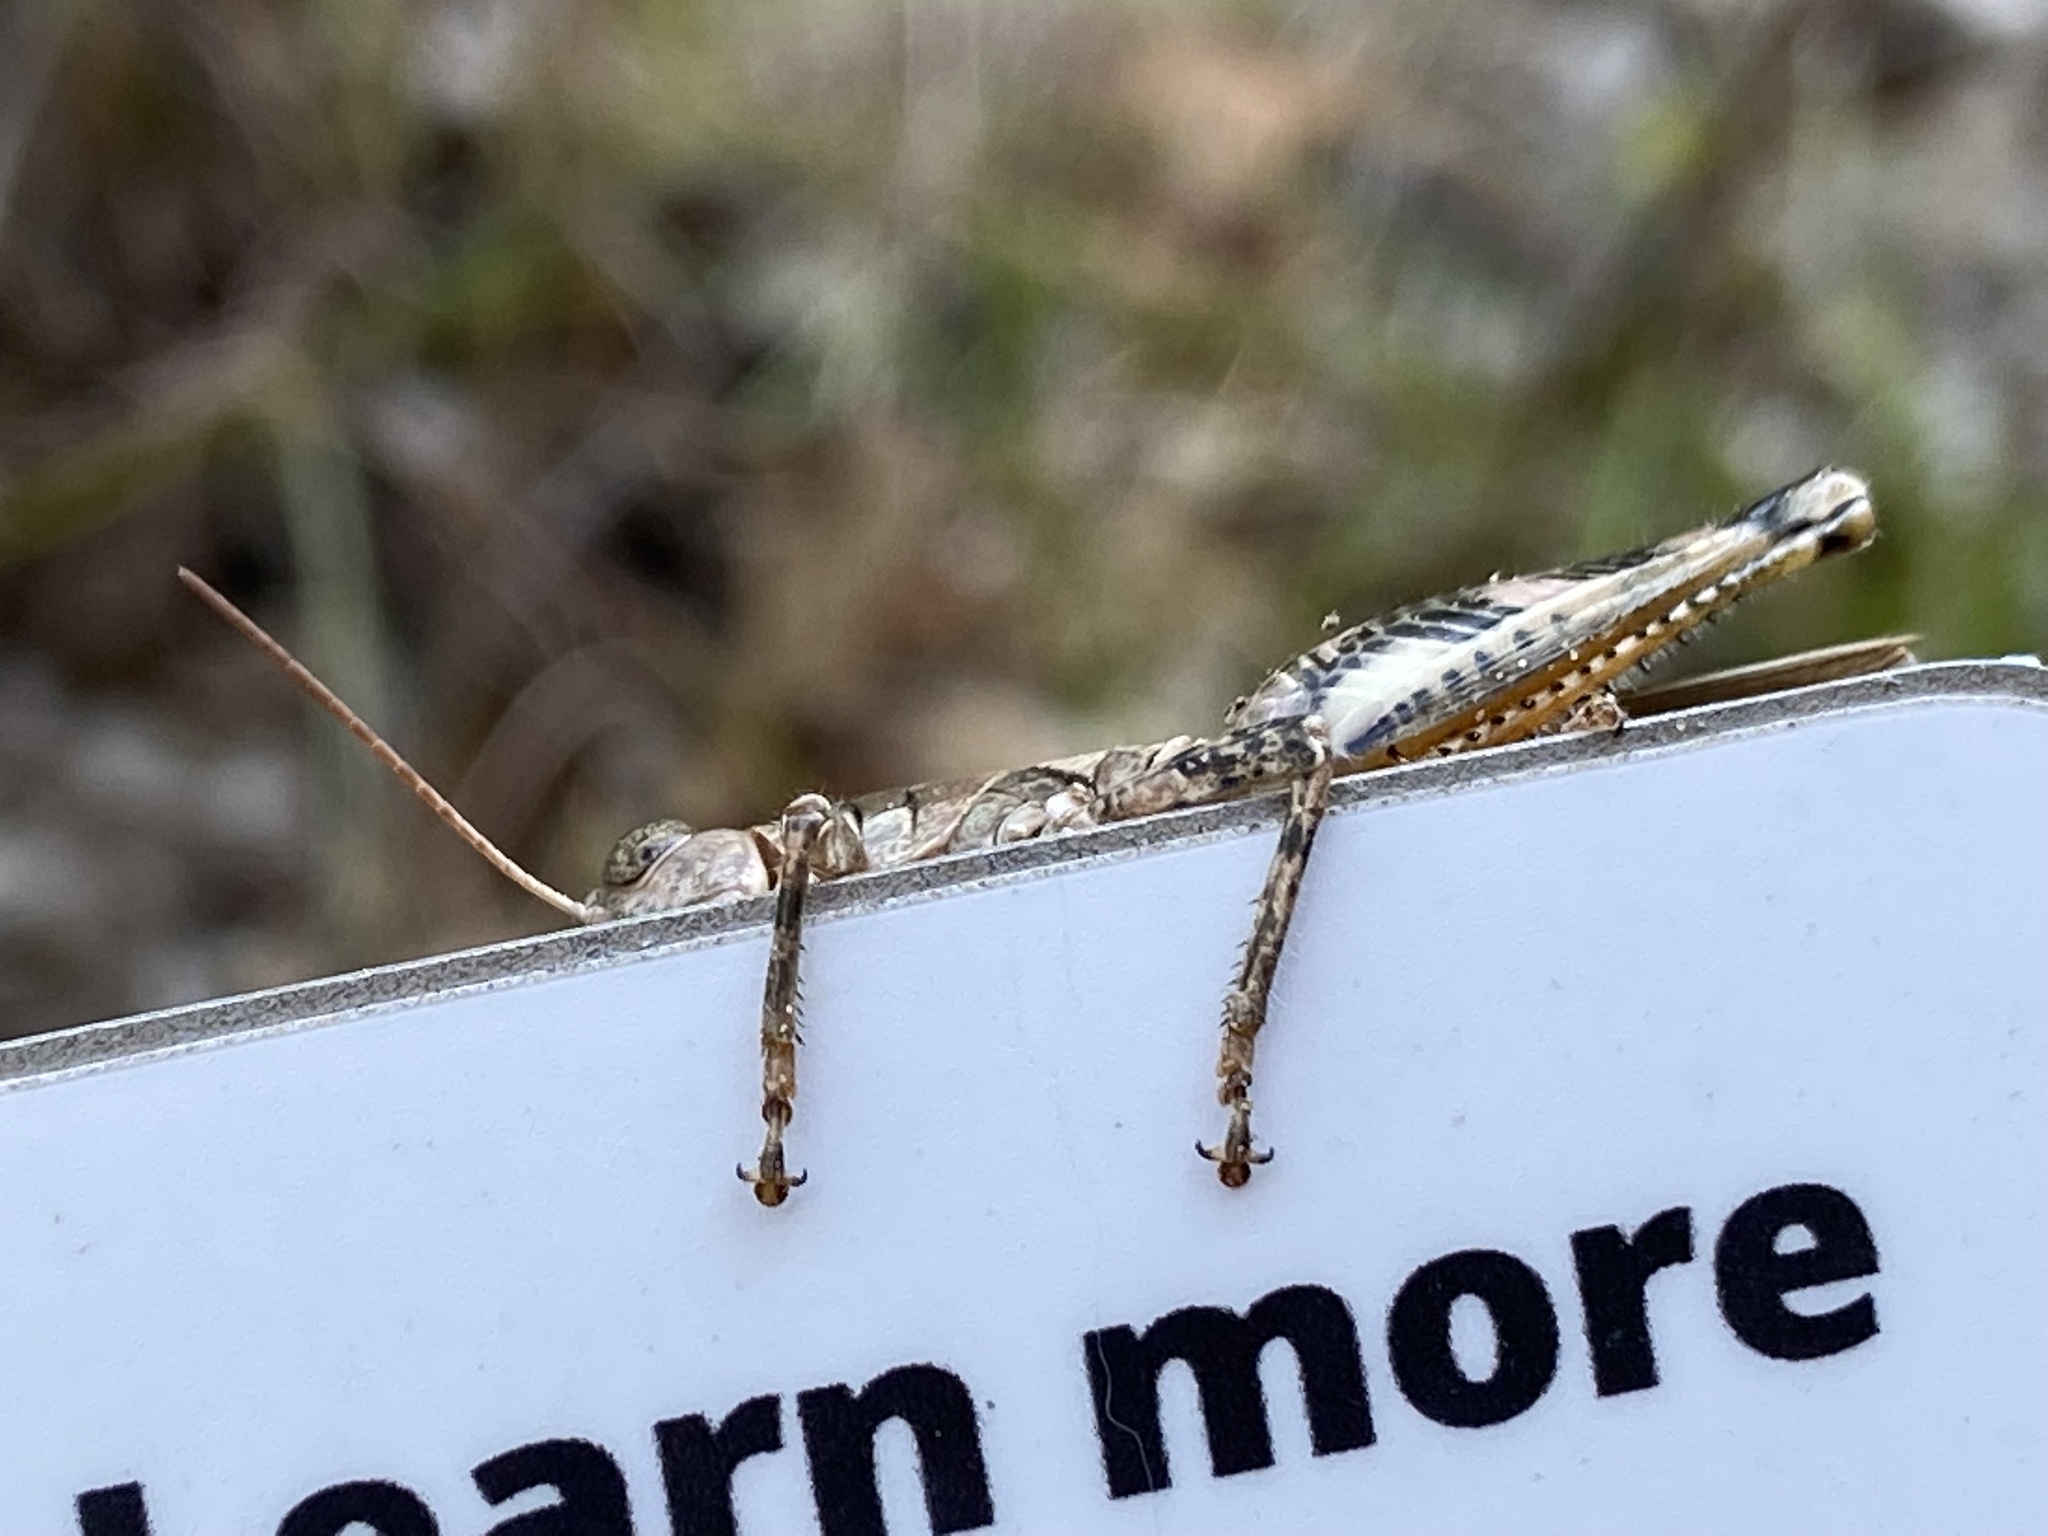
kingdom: Animalia
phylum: Arthropoda
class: Insecta
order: Orthoptera
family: Acrididae
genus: Melanoplus
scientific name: Melanoplus ponderosus
